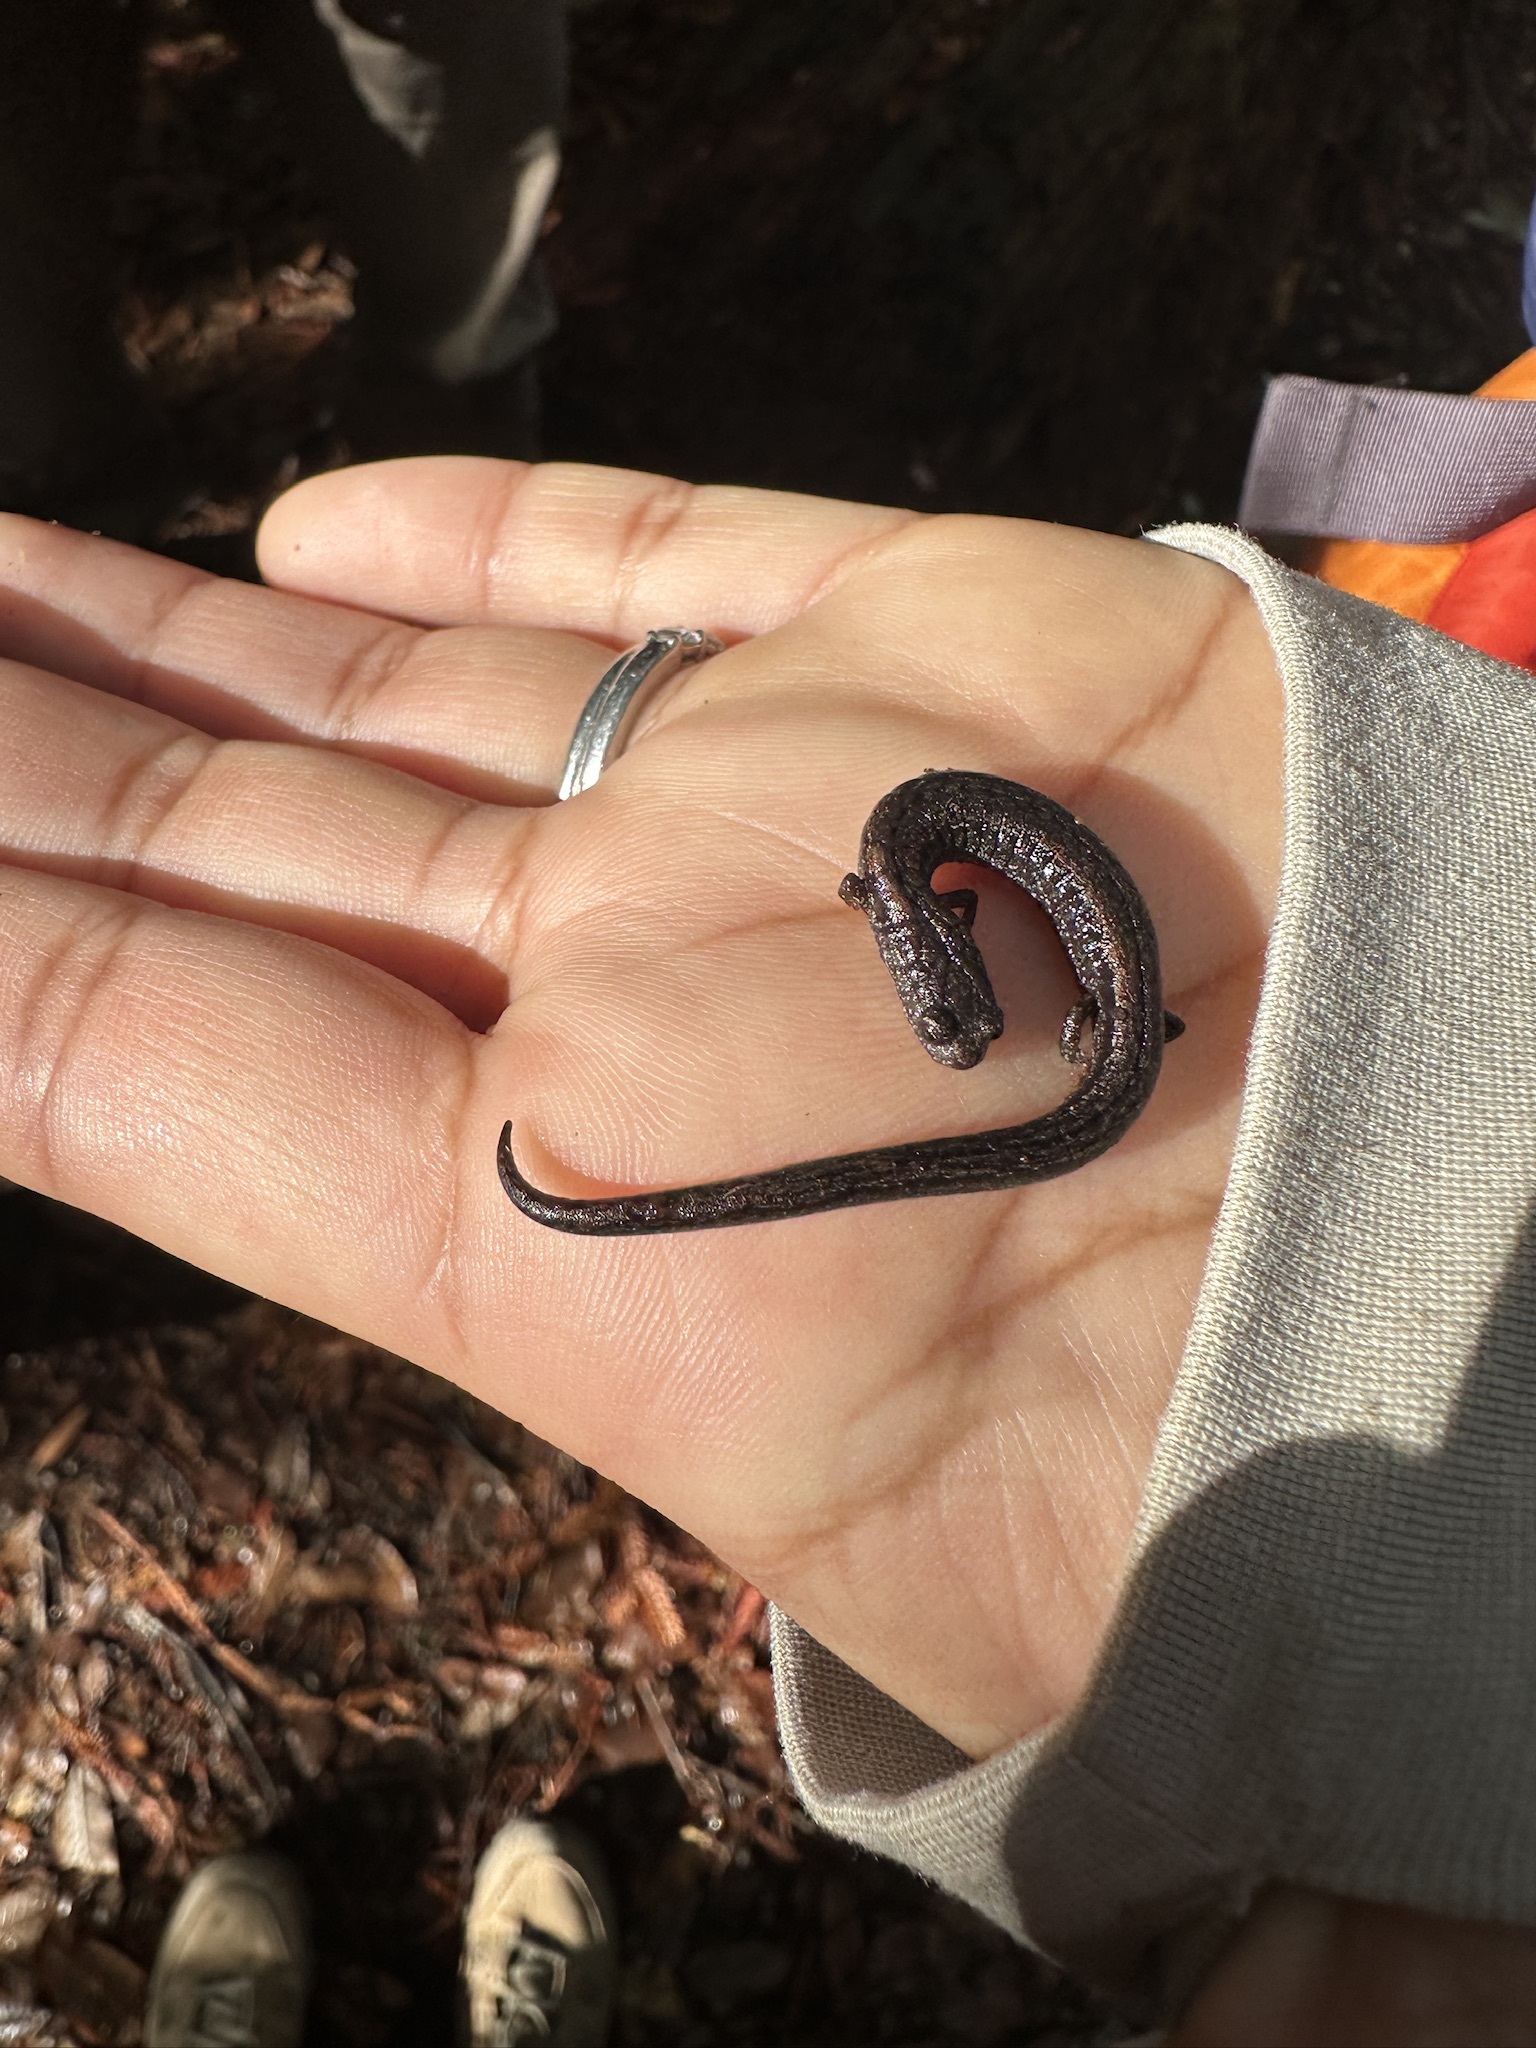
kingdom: Animalia
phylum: Chordata
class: Amphibia
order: Caudata
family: Plethodontidae
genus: Batrachoseps
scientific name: Batrachoseps attenuatus
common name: California slender salamander
